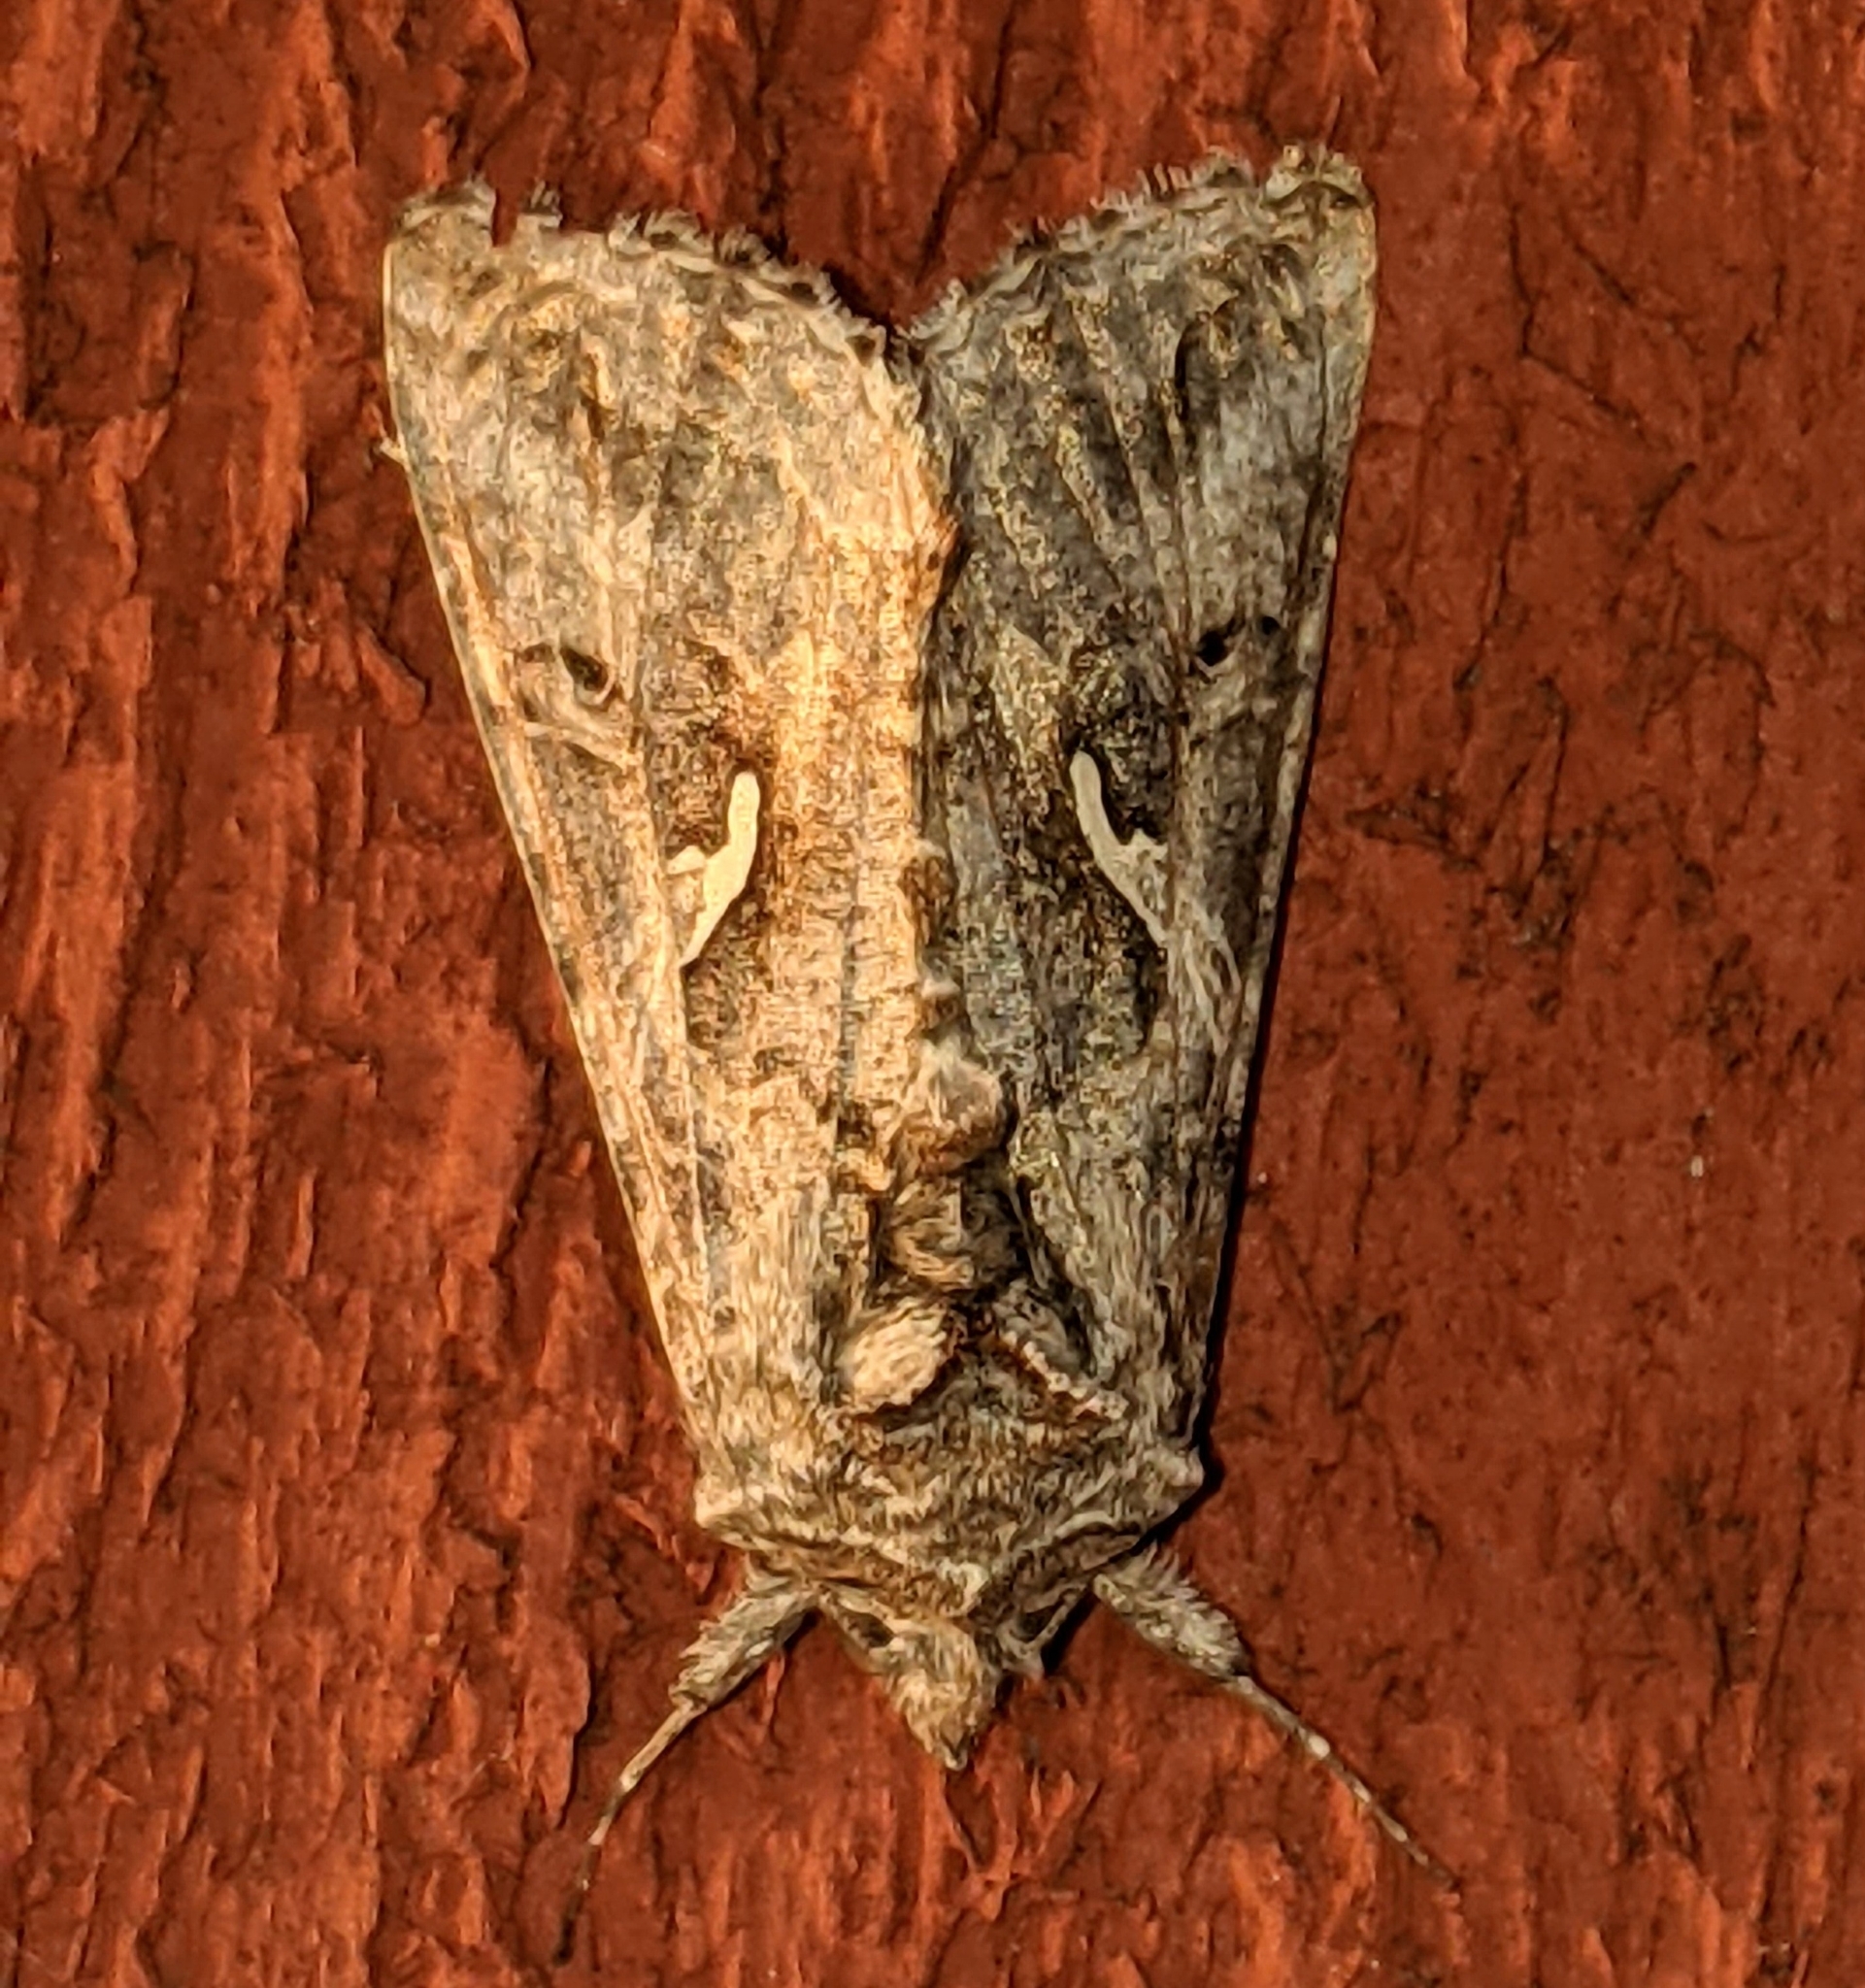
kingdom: Animalia
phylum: Arthropoda
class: Insecta
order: Lepidoptera
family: Noctuidae
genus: Autographa
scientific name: Autographa californica
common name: Alfalfa looper
